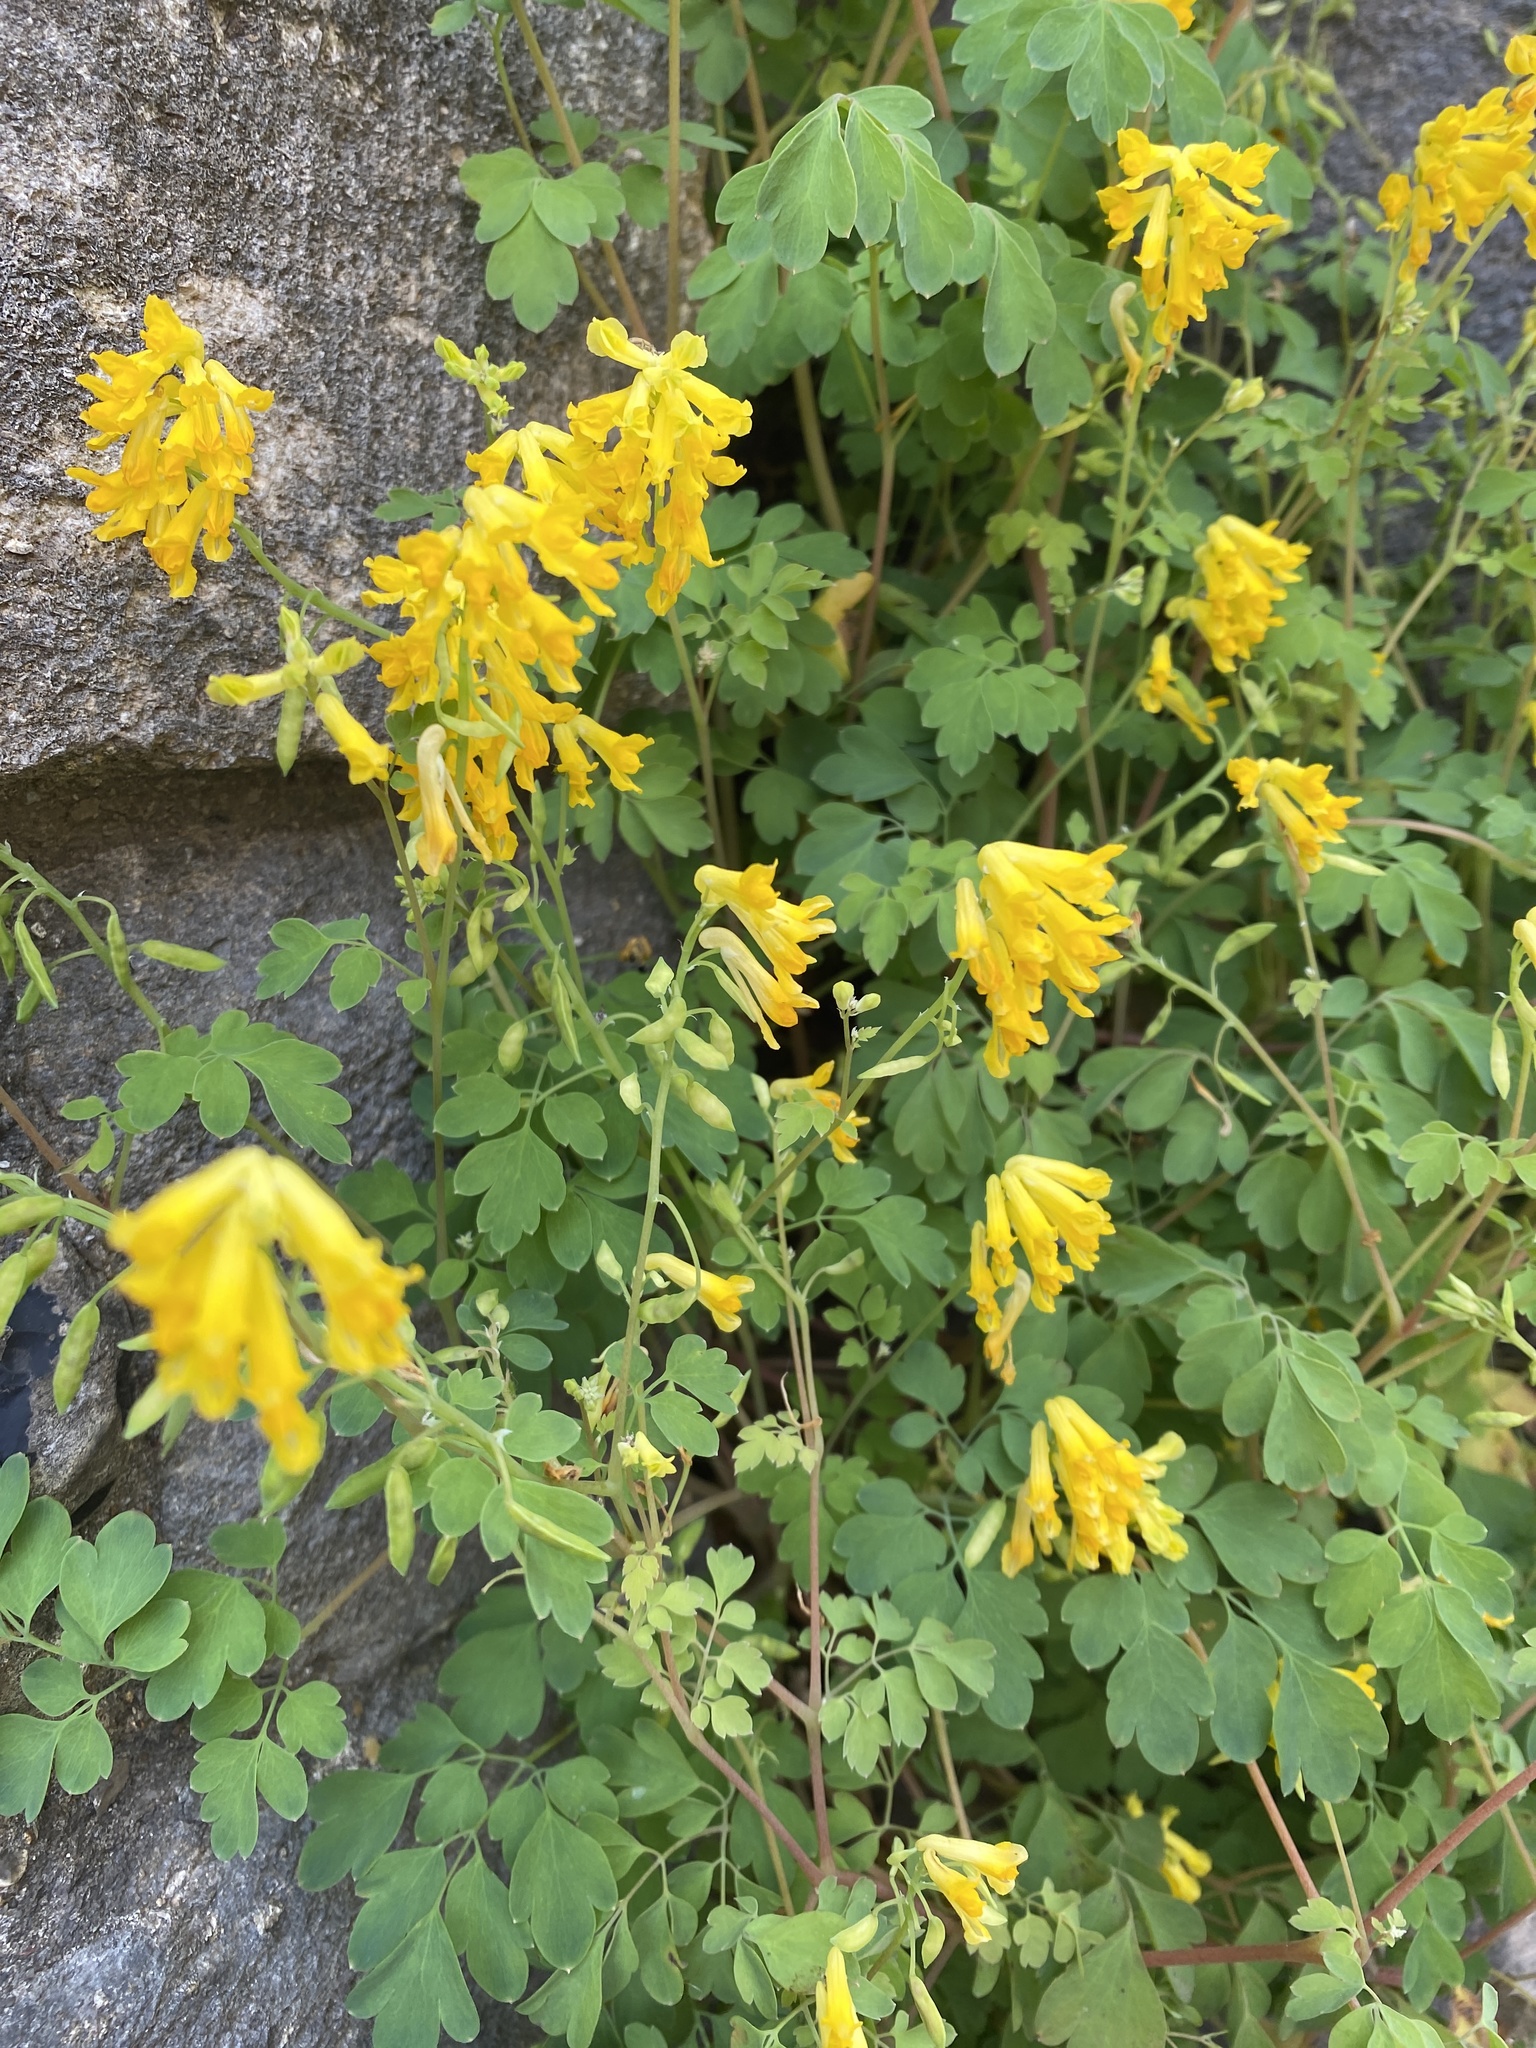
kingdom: Plantae
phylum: Tracheophyta
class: Magnoliopsida
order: Ranunculales
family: Papaveraceae
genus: Pseudofumaria
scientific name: Pseudofumaria lutea
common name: Yellow corydalis
